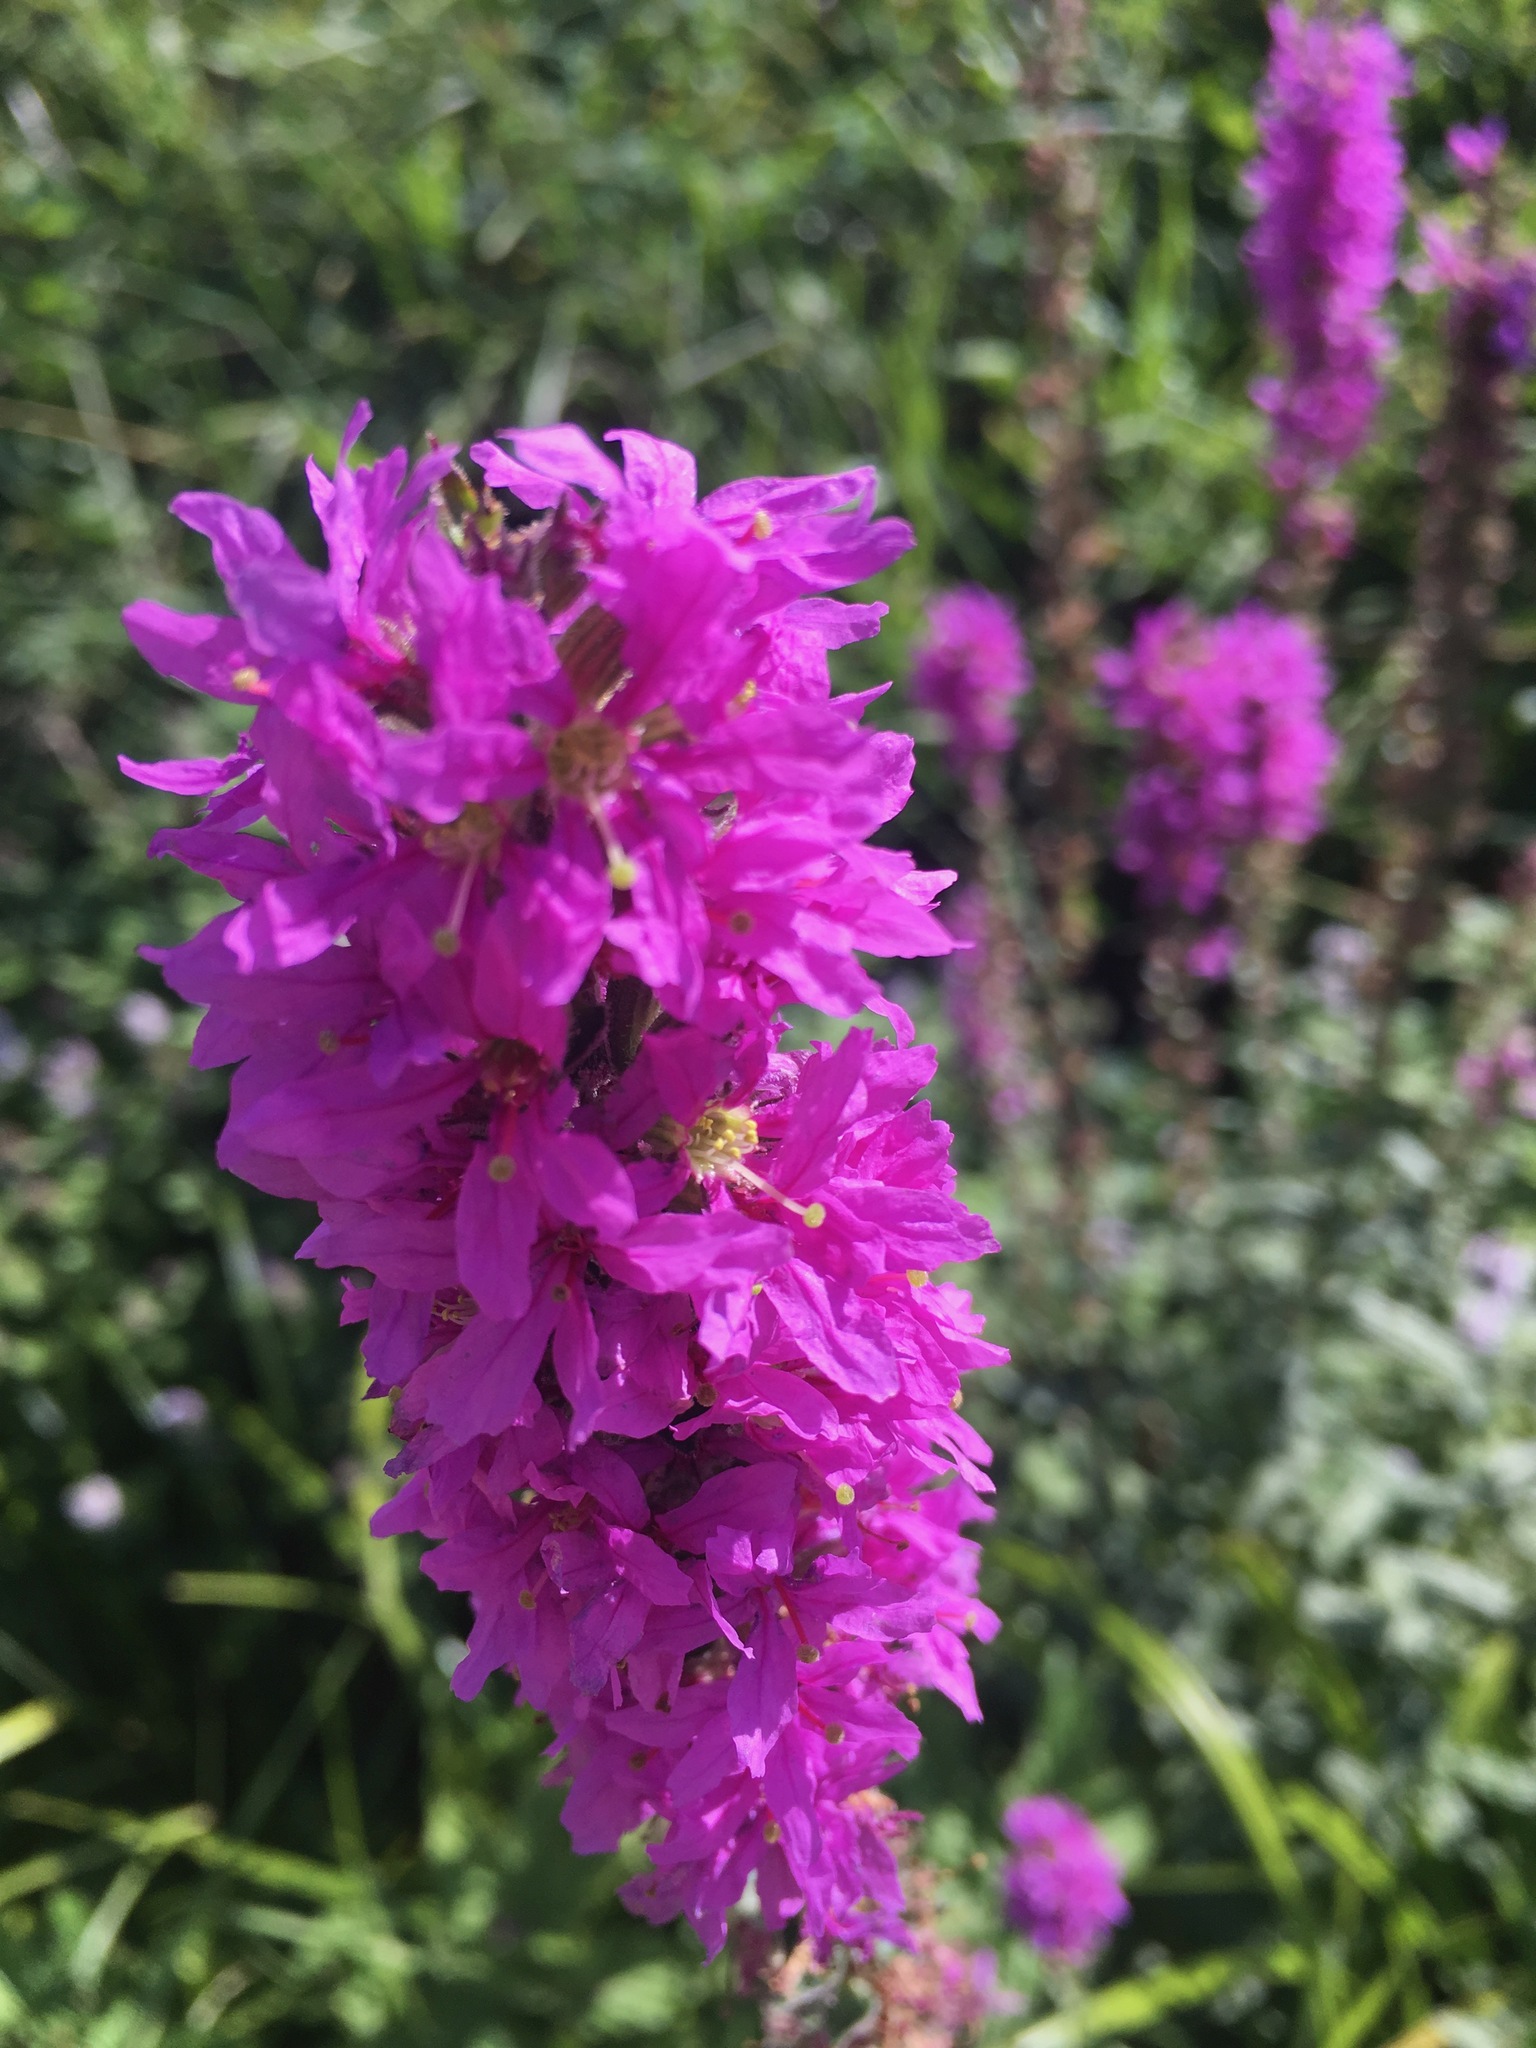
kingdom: Plantae
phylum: Tracheophyta
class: Magnoliopsida
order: Myrtales
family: Lythraceae
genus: Lythrum
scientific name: Lythrum salicaria
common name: Purple loosestrife
